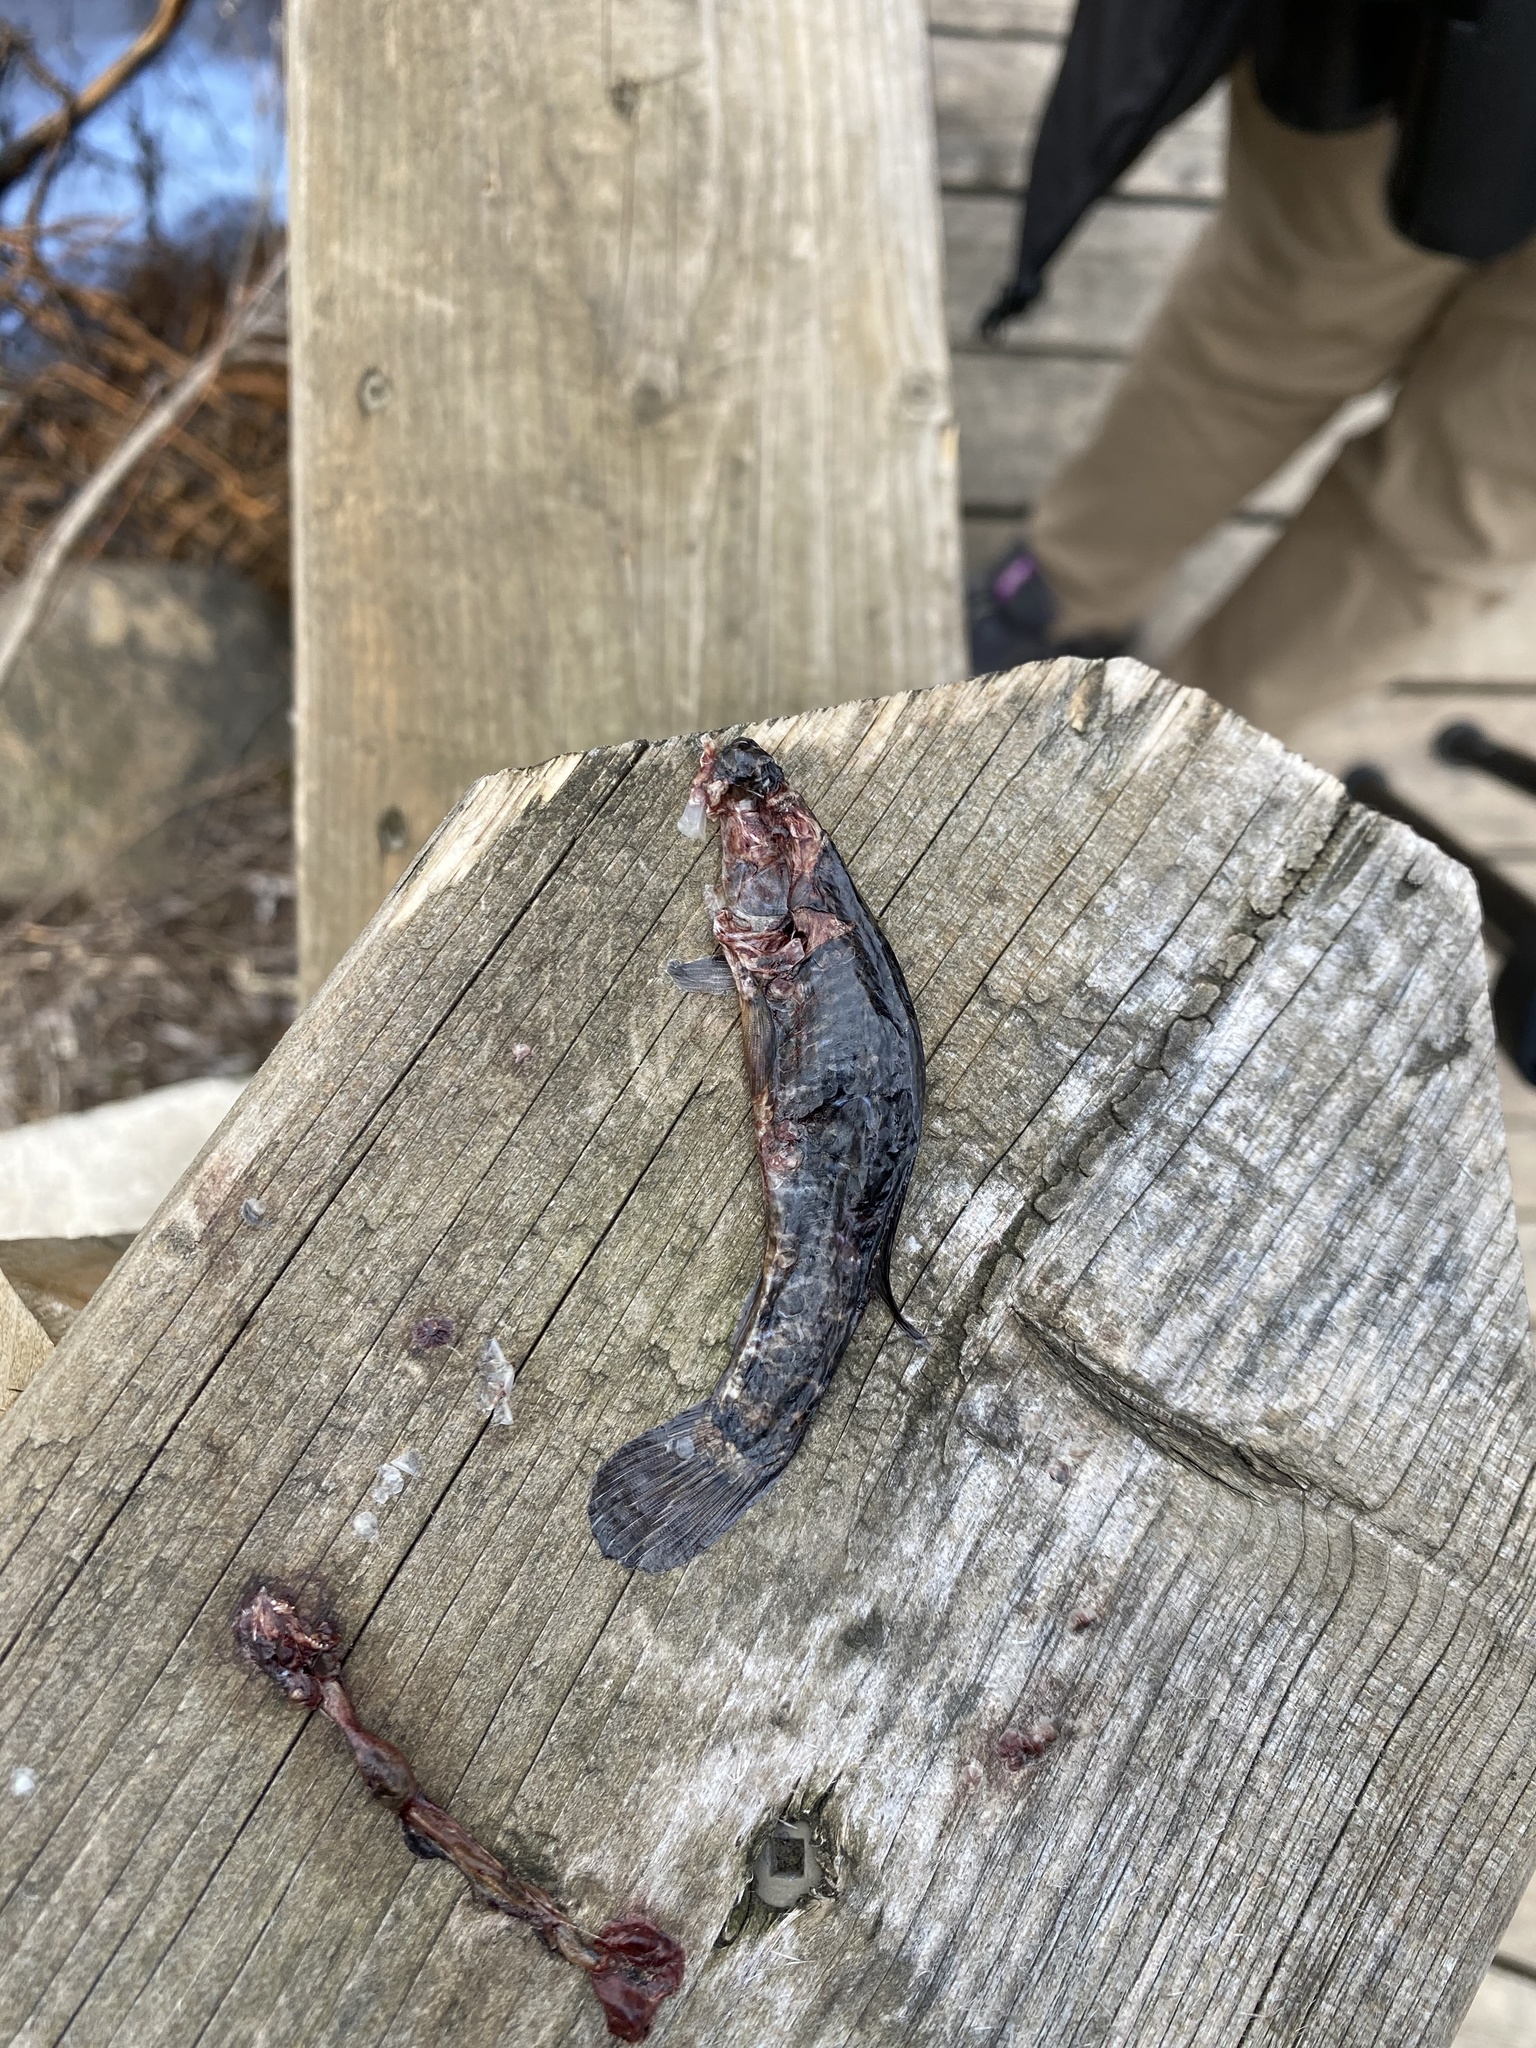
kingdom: Animalia
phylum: Chordata
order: Esociformes
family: Umbridae
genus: Umbra
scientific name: Umbra limi
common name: Central mudminnow
